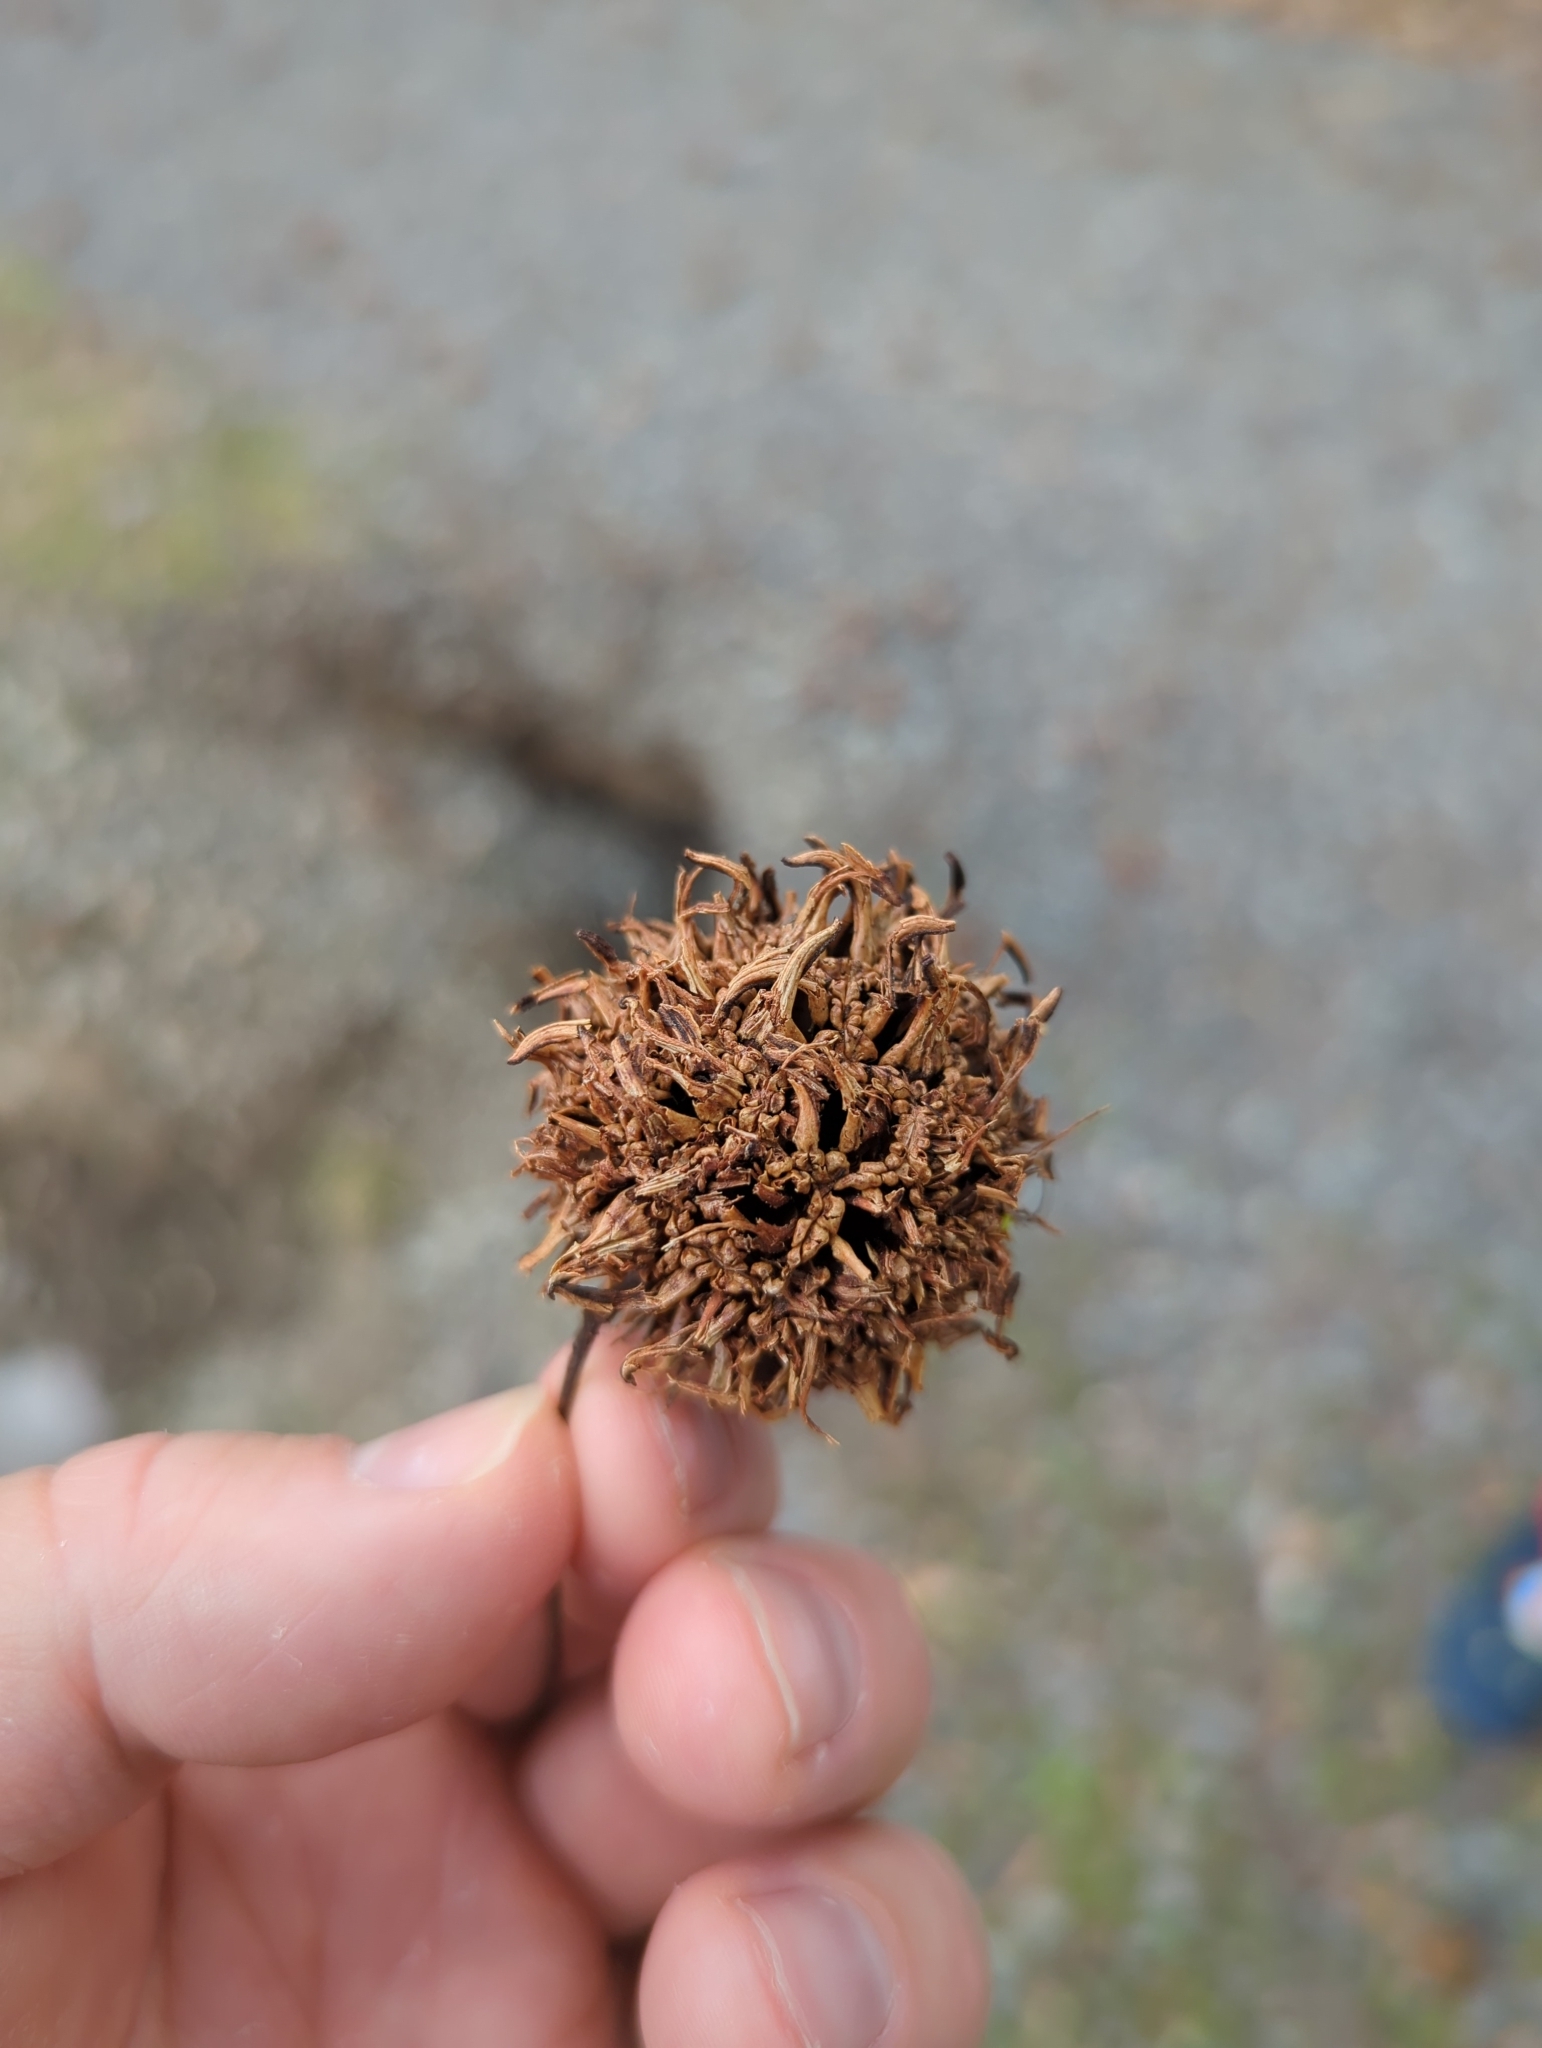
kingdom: Plantae
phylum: Tracheophyta
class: Magnoliopsida
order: Saxifragales
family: Altingiaceae
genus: Liquidambar
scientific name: Liquidambar styraciflua
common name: Sweet gum
